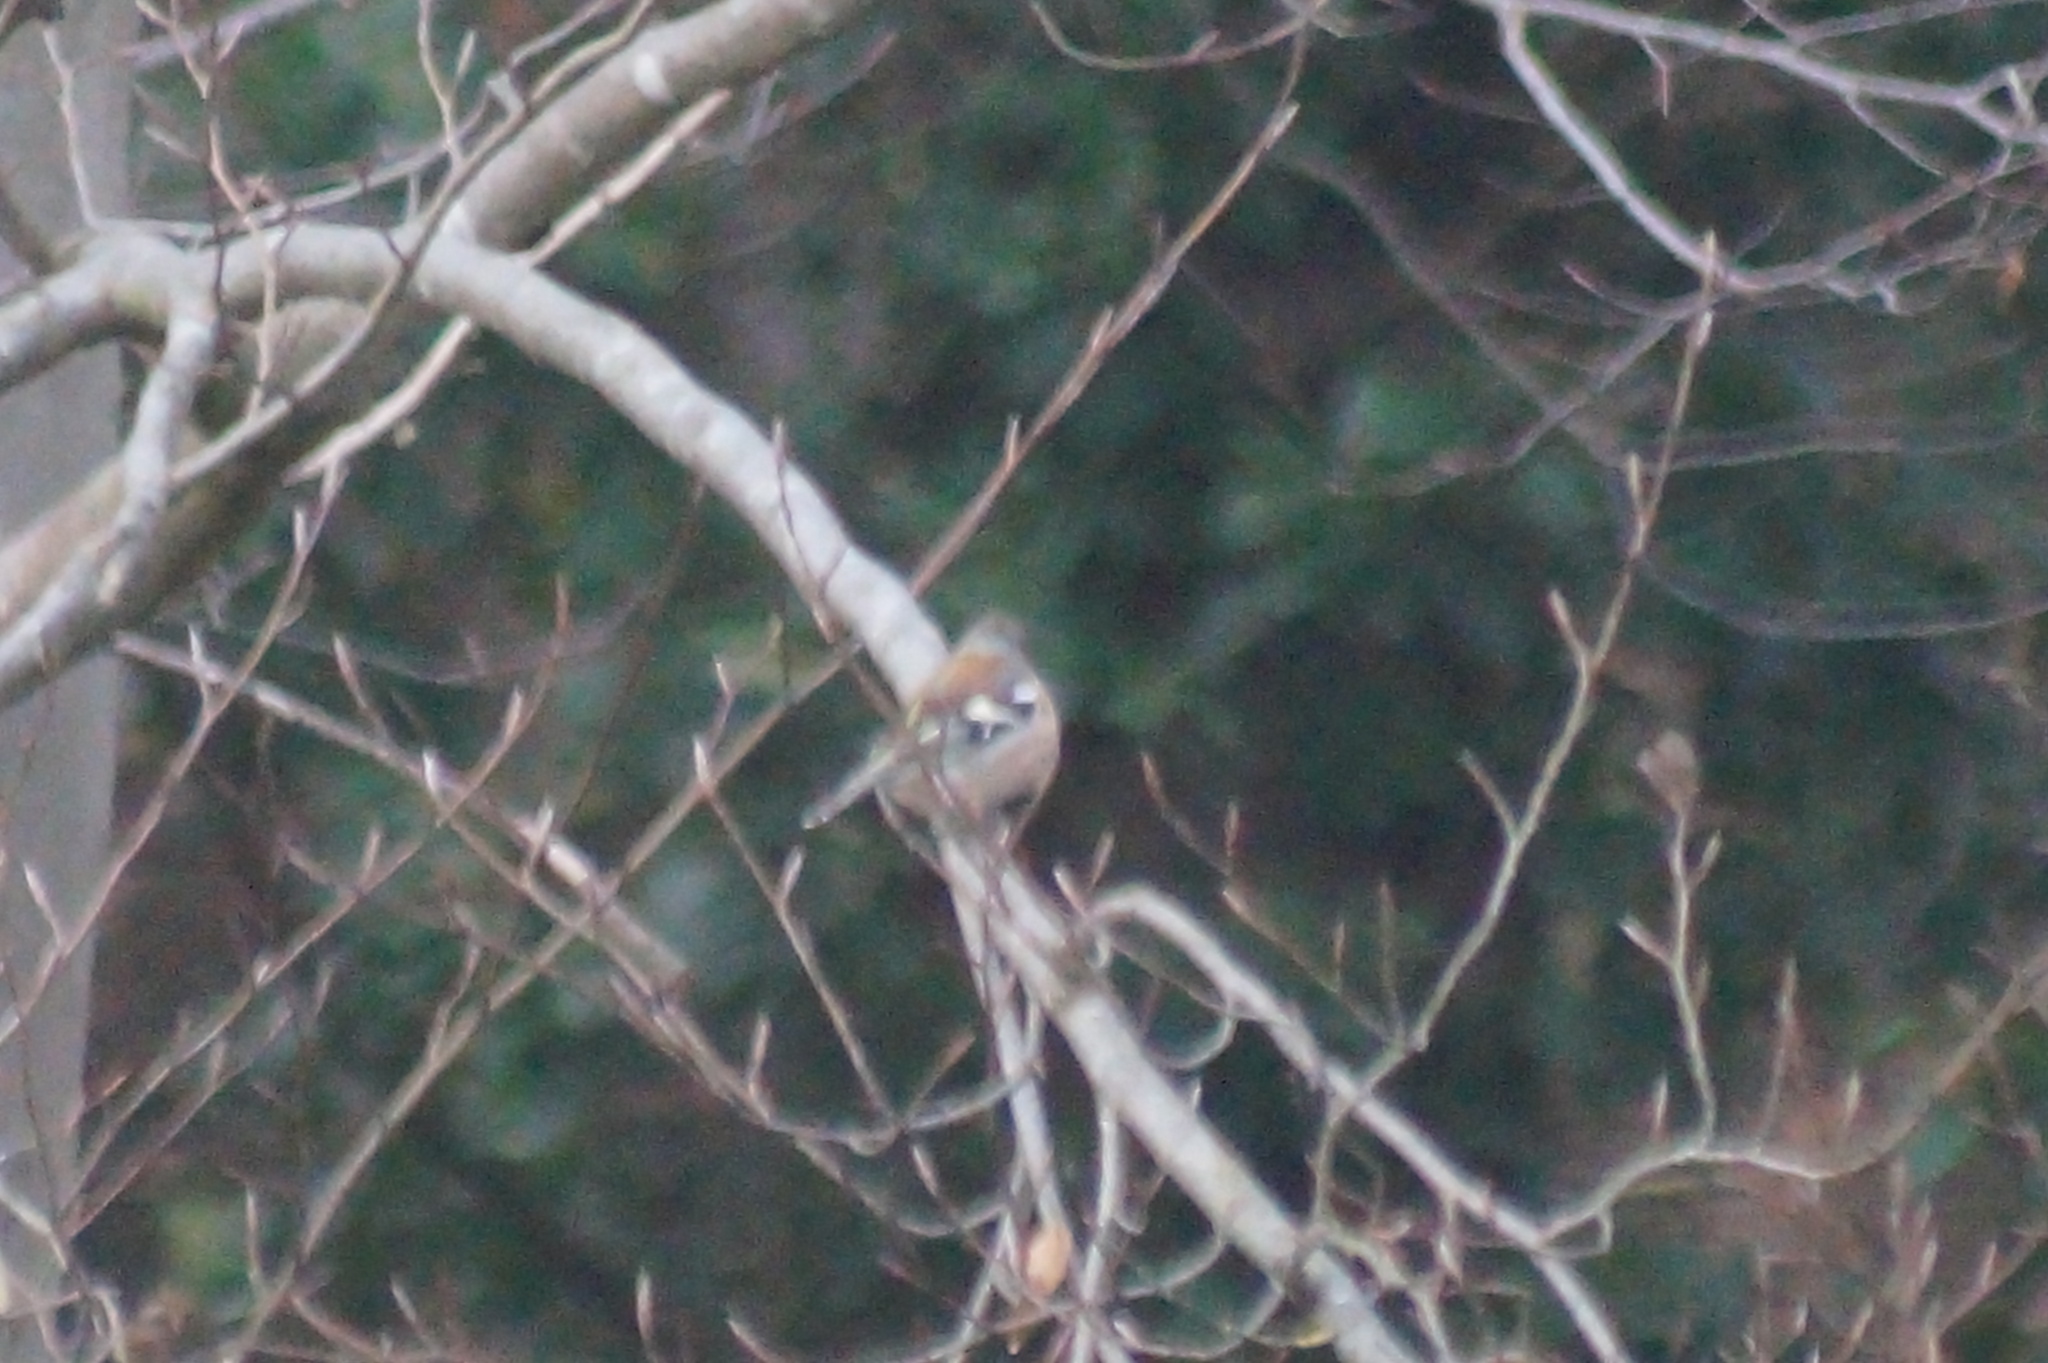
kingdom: Animalia
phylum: Chordata
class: Aves
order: Passeriformes
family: Fringillidae
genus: Fringilla
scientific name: Fringilla coelebs
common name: Common chaffinch
